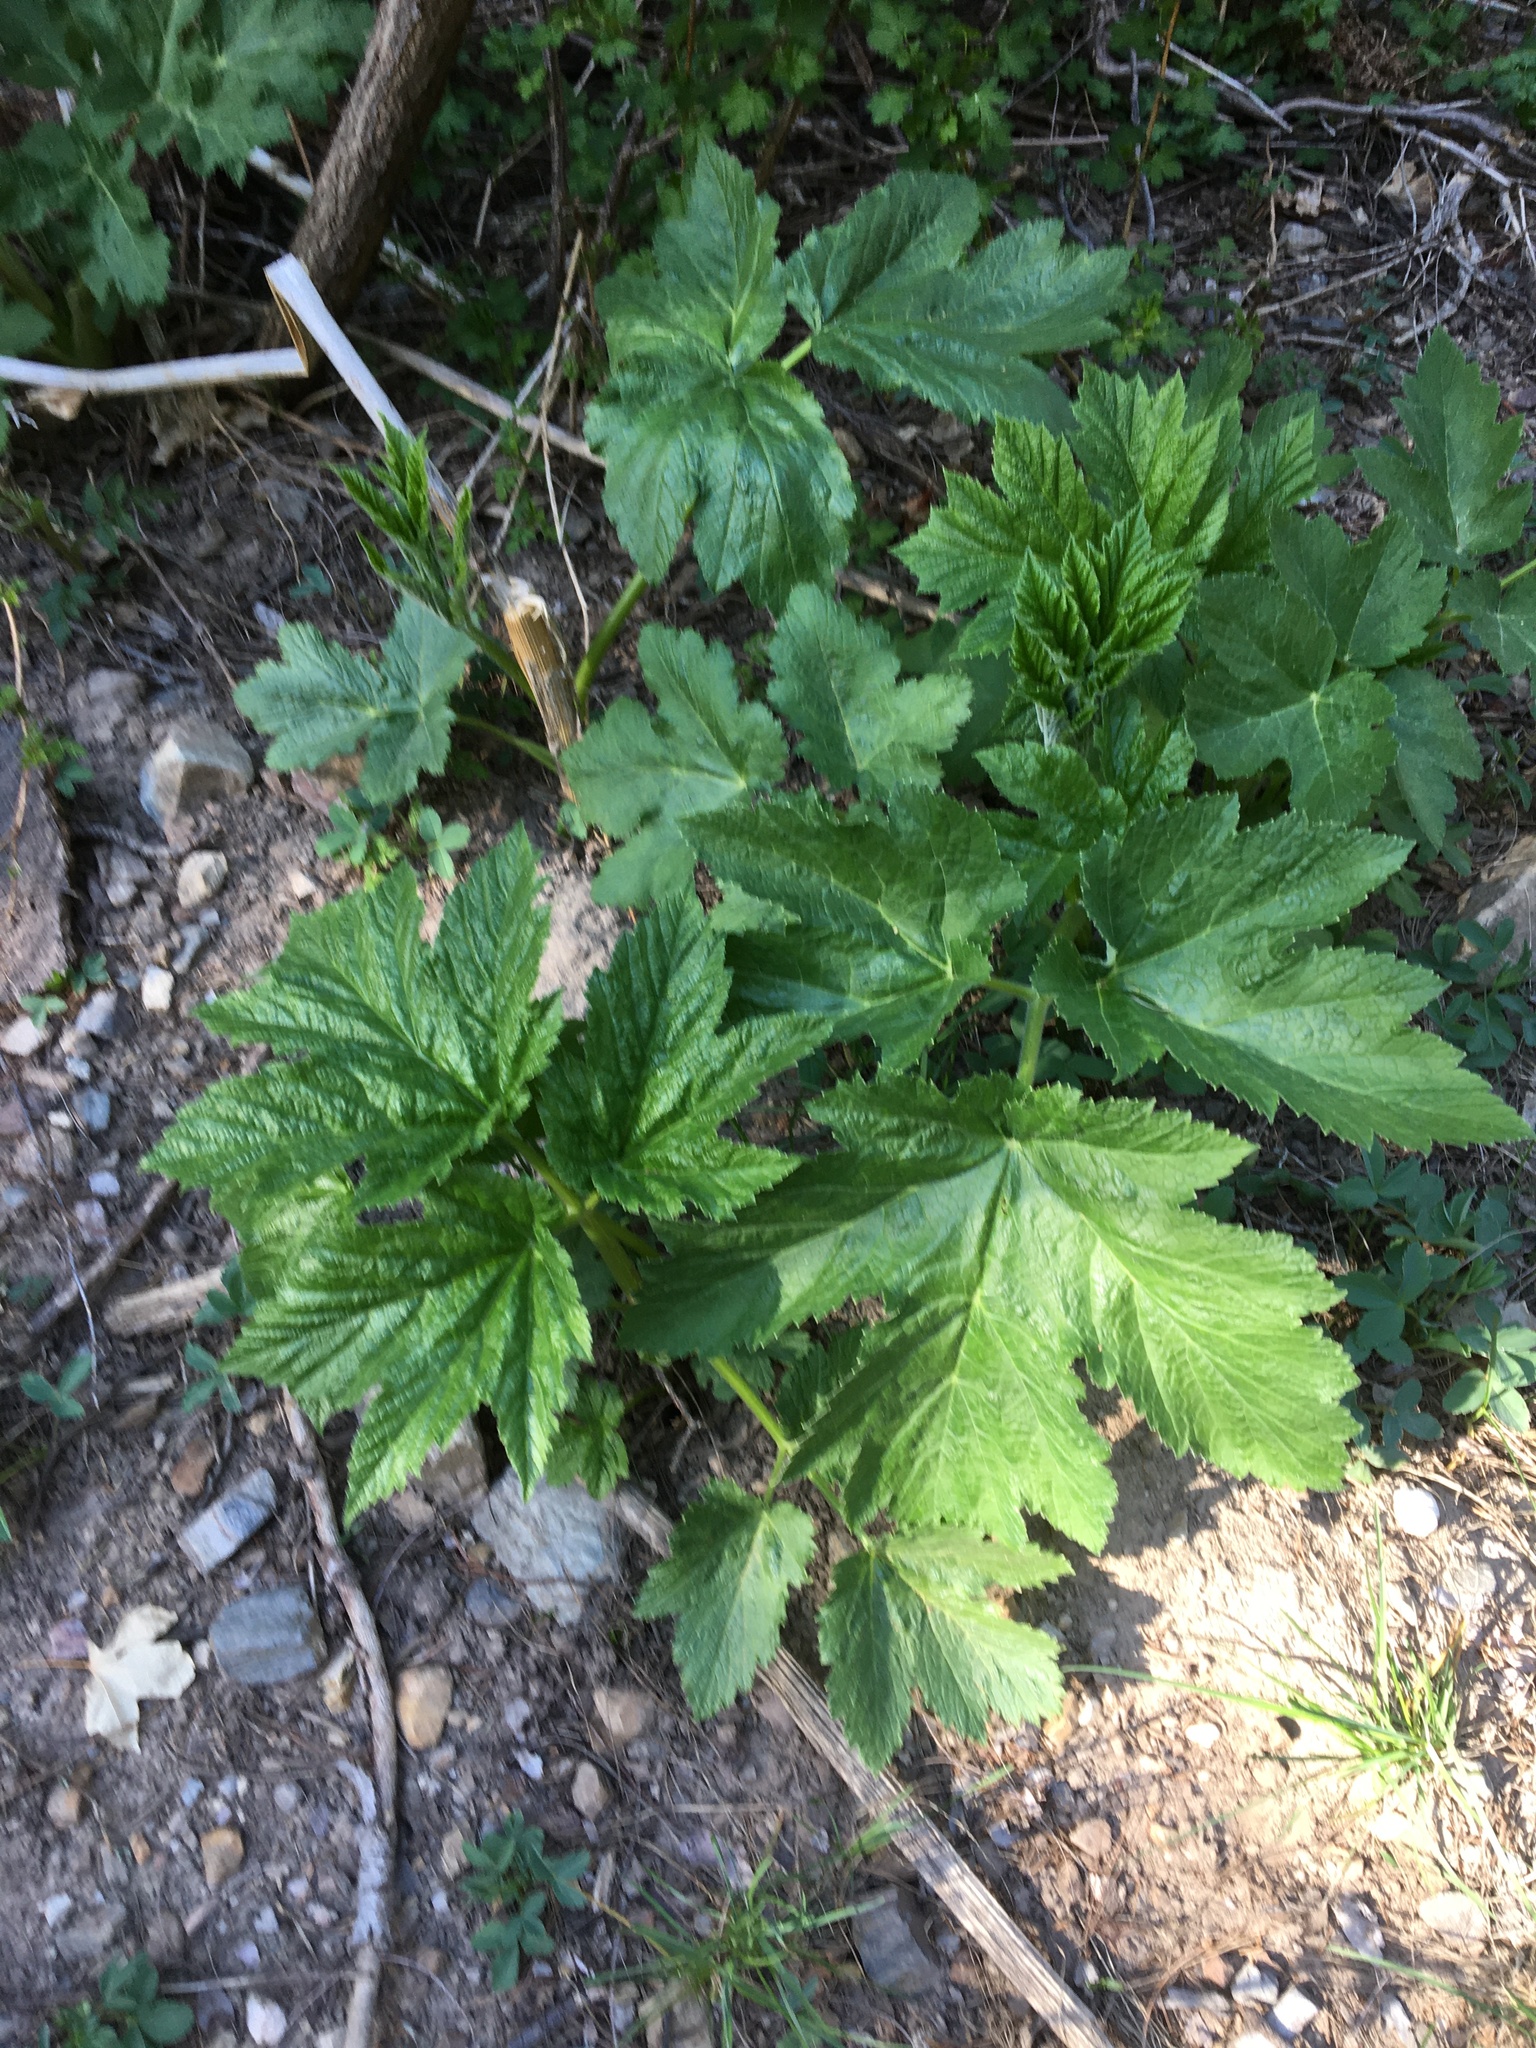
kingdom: Plantae
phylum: Tracheophyta
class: Magnoliopsida
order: Apiales
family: Apiaceae
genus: Heracleum
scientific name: Heracleum maximum
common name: American cow parsnip
